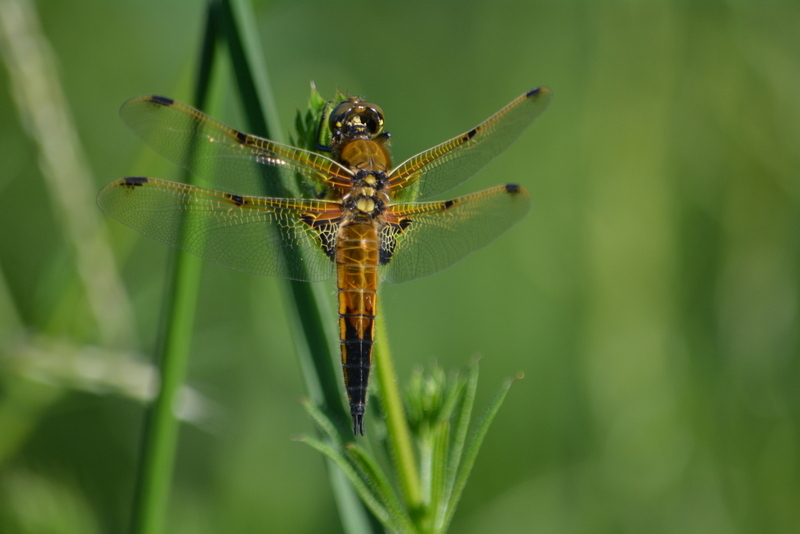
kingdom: Animalia
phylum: Arthropoda
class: Insecta
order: Odonata
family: Libellulidae
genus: Libellula
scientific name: Libellula quadrimaculata
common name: Four-spotted chaser
